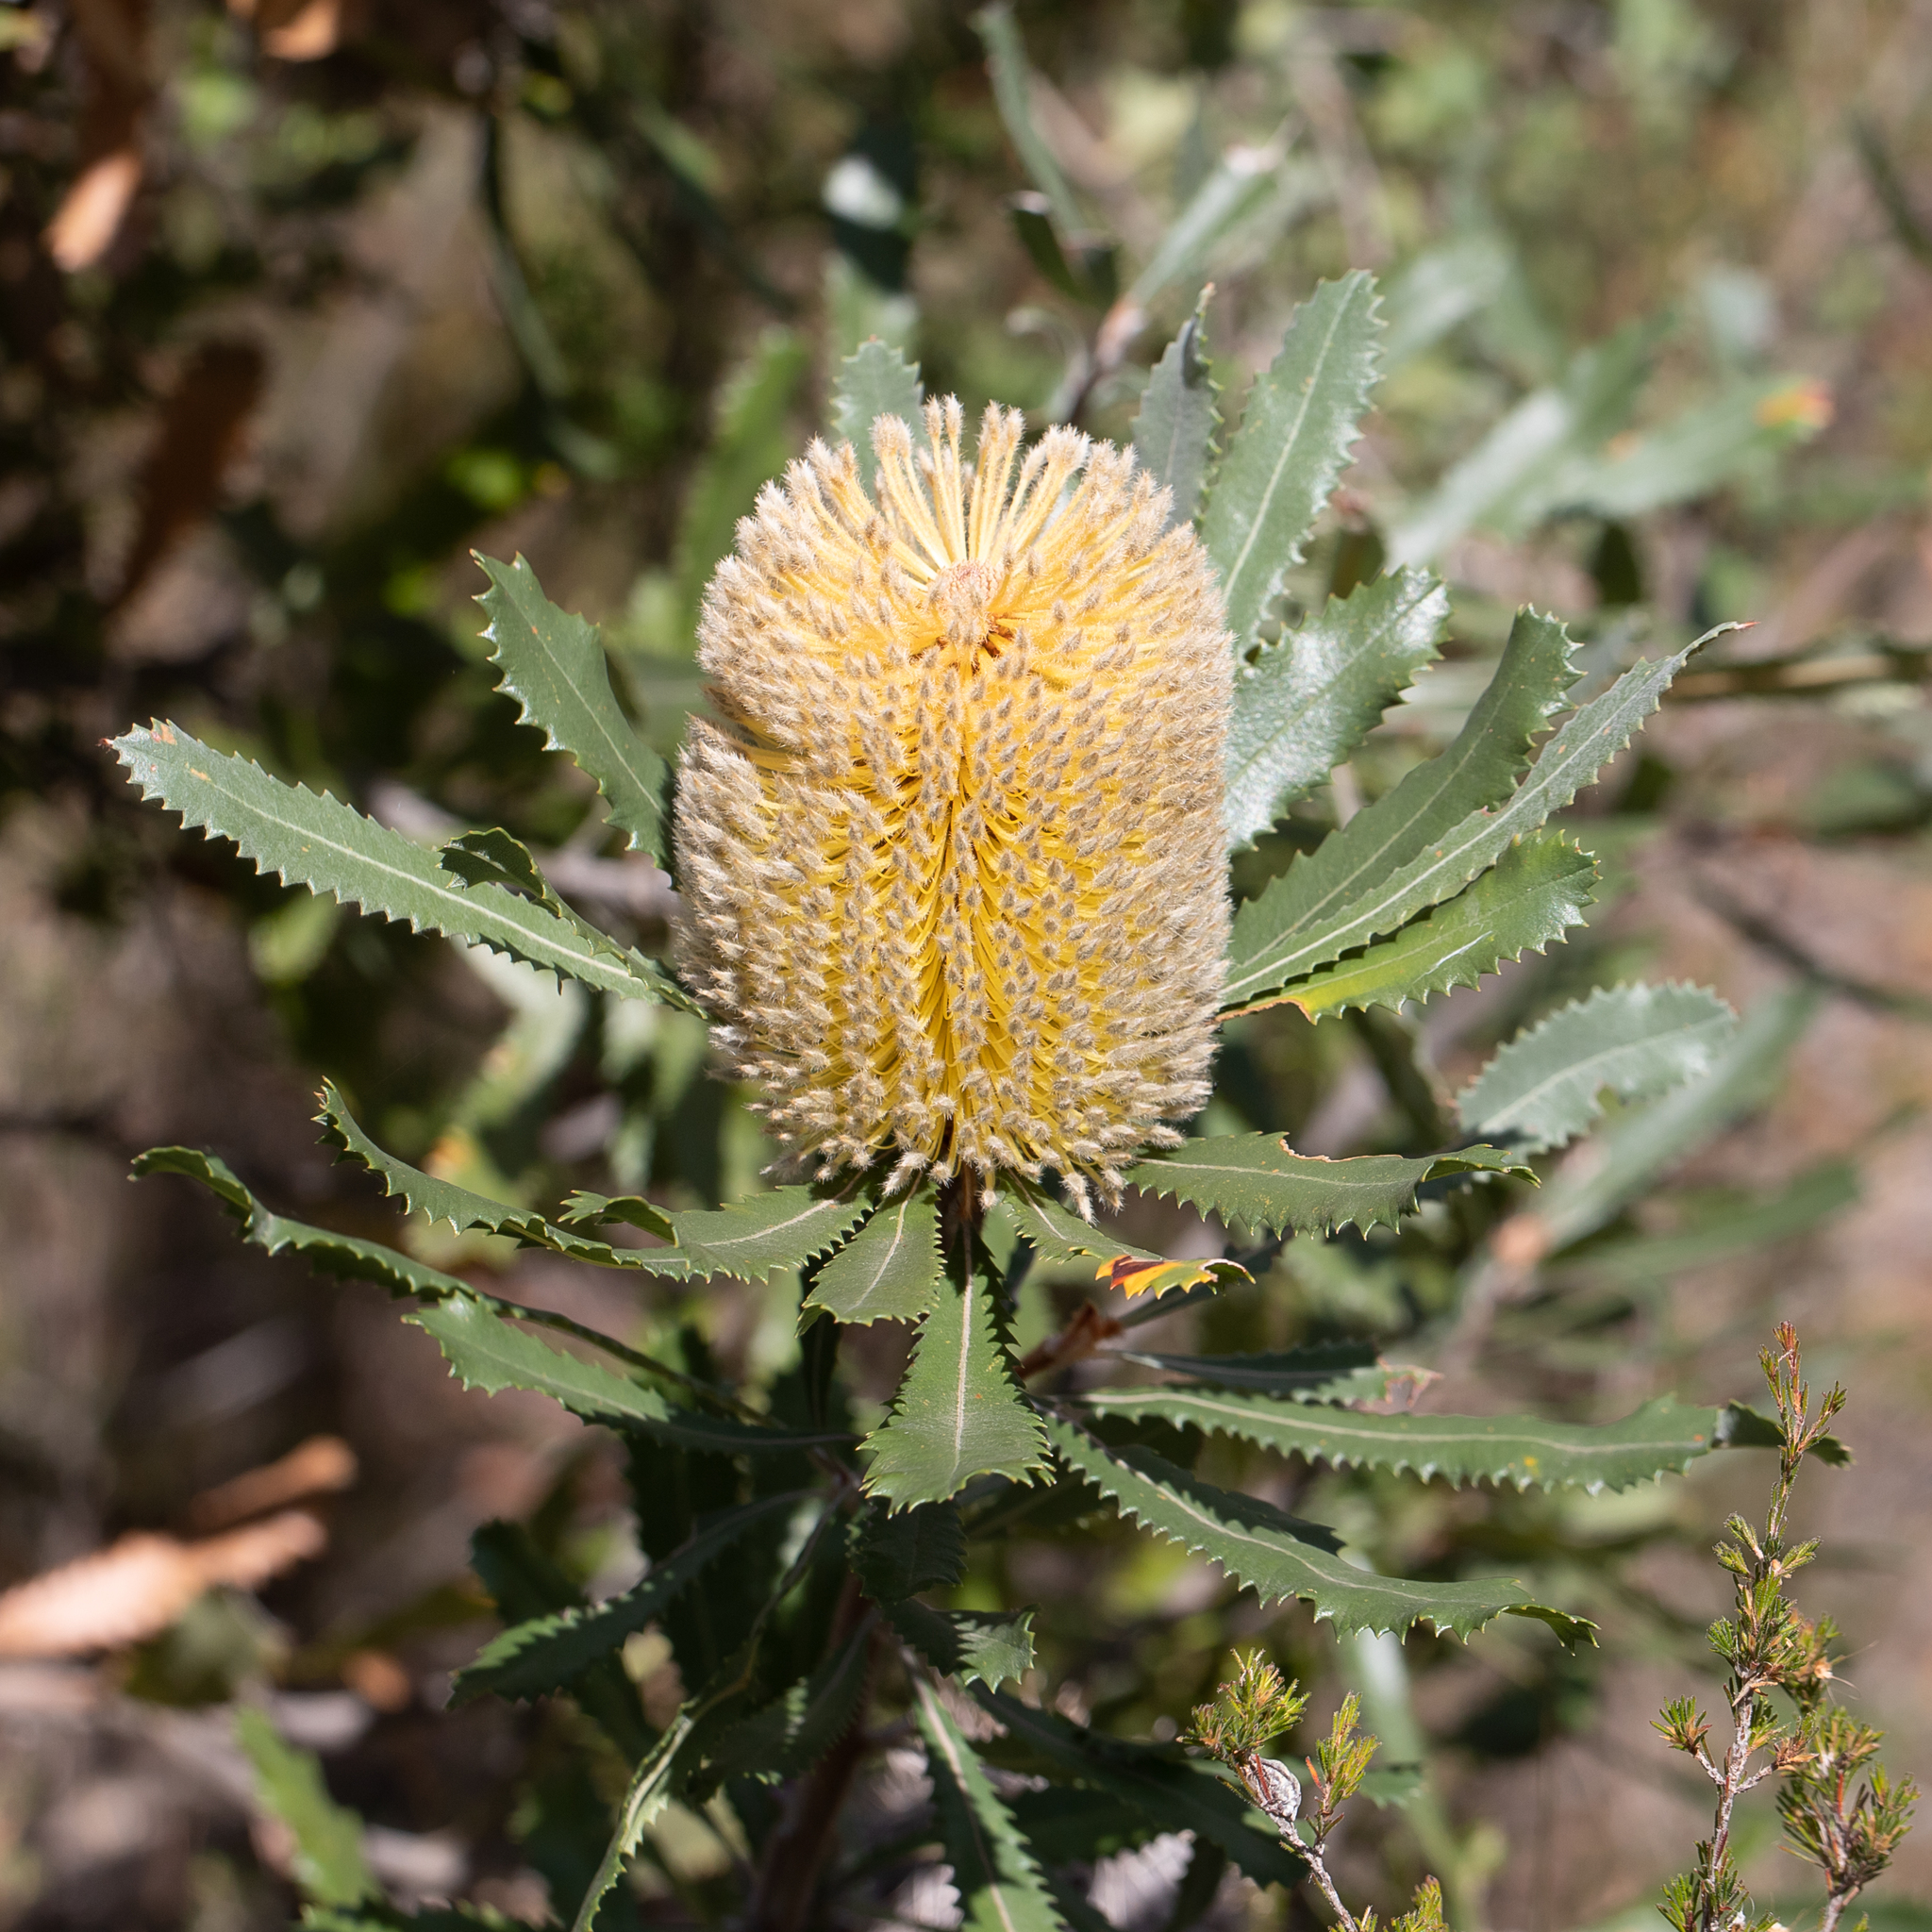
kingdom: Plantae
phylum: Tracheophyta
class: Magnoliopsida
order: Proteales
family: Proteaceae
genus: Banksia
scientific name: Banksia ornata
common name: Desert banksia
